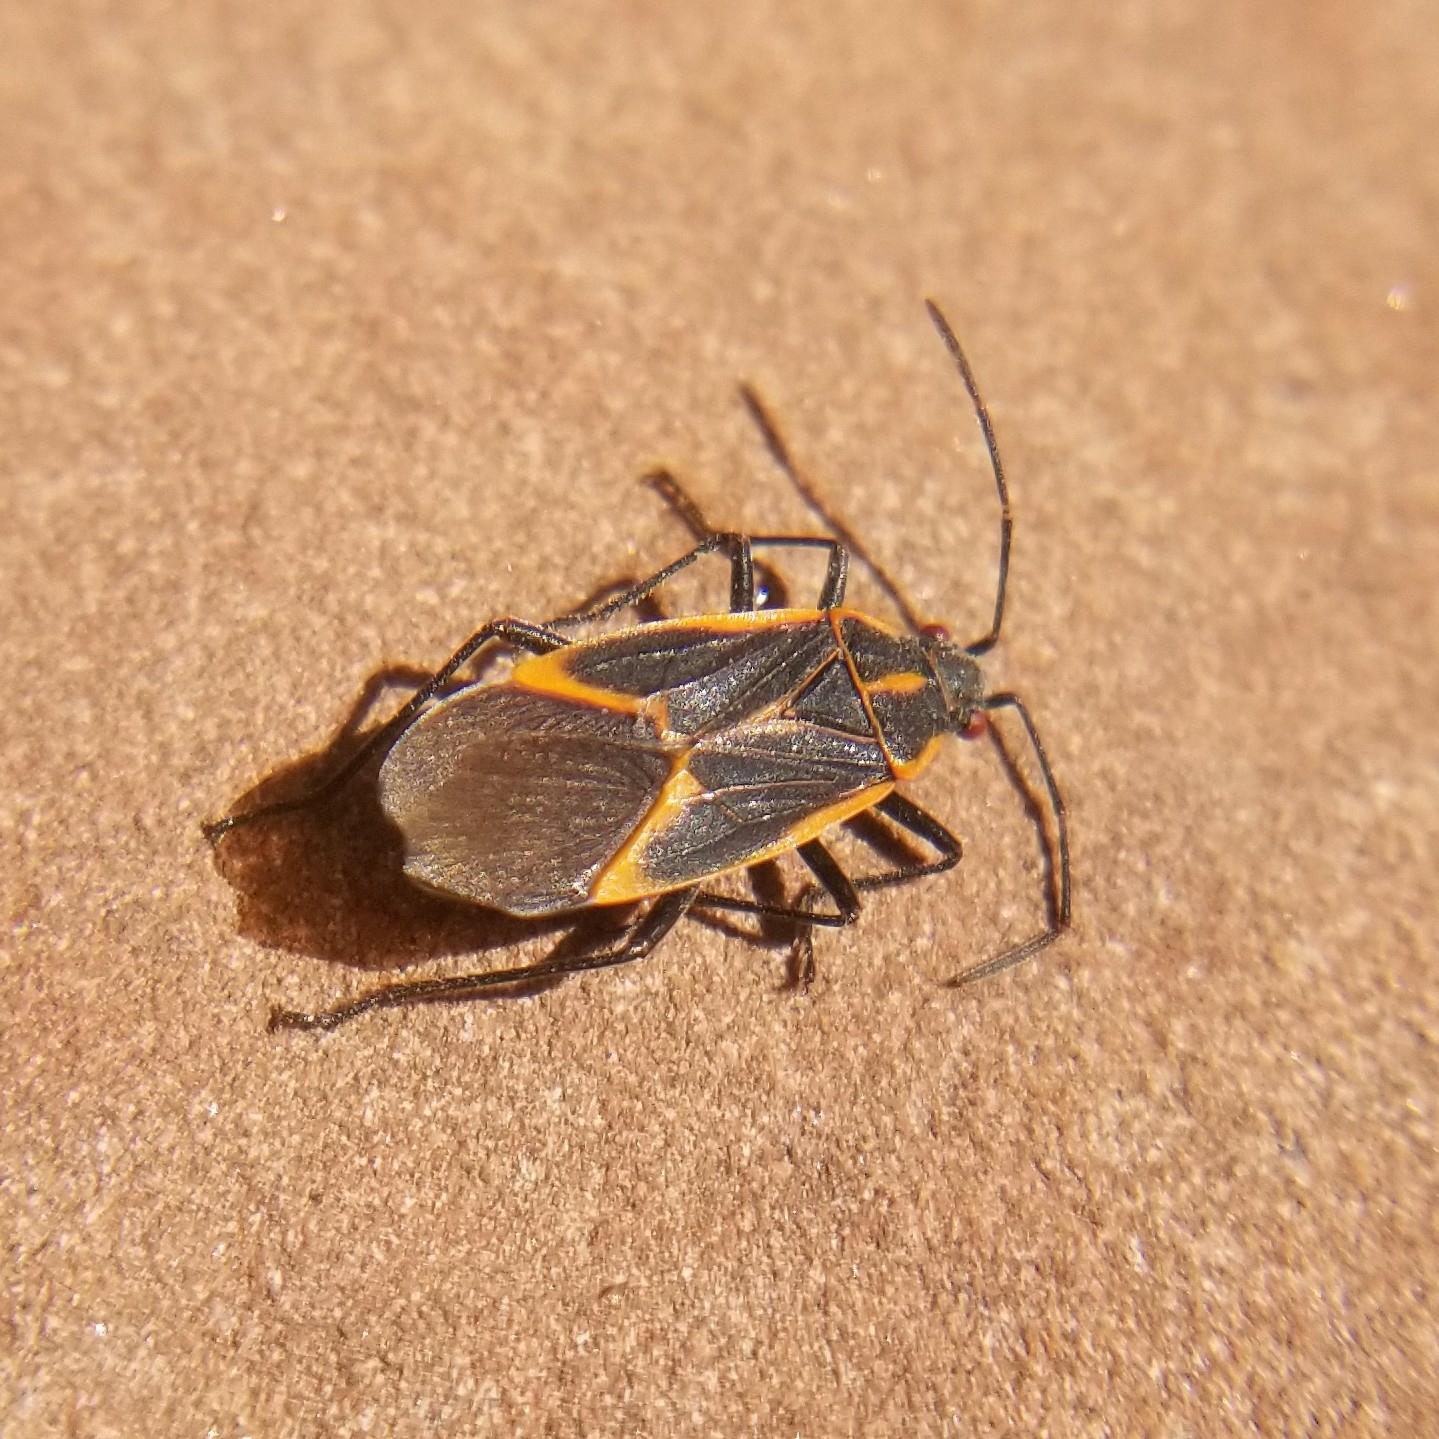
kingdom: Animalia
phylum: Arthropoda
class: Insecta
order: Hemiptera
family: Rhopalidae
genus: Boisea
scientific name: Boisea trivittata
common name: Boxelder bug
